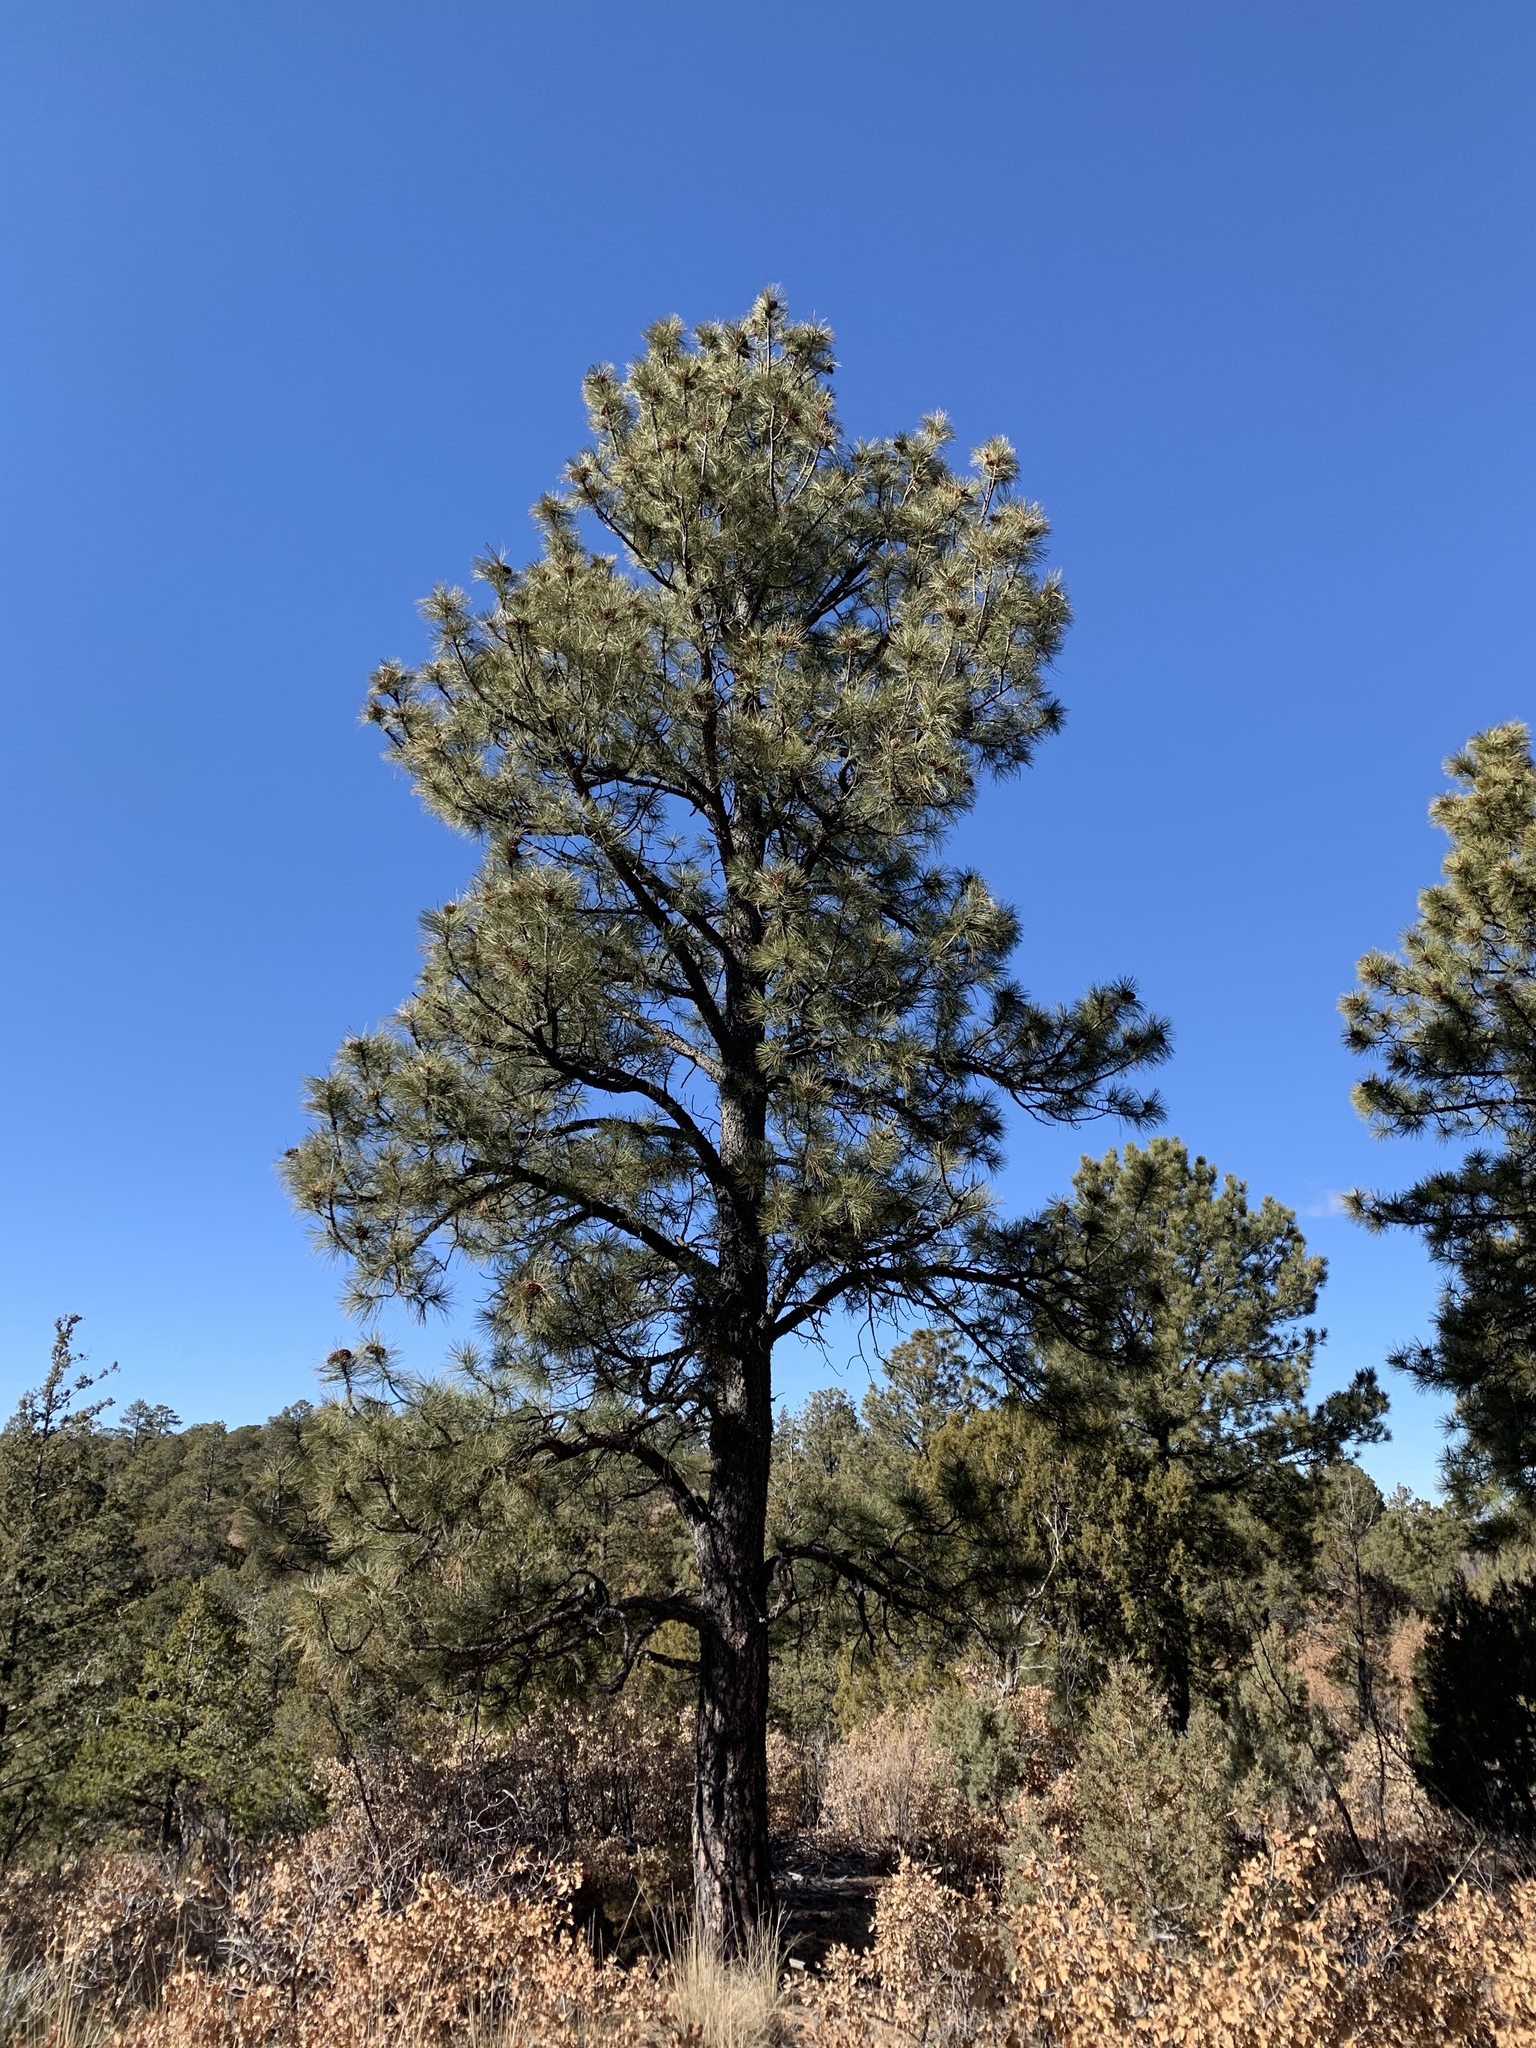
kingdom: Plantae
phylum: Tracheophyta
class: Pinopsida
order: Pinales
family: Pinaceae
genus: Pinus
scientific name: Pinus ponderosa
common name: Western yellow-pine
